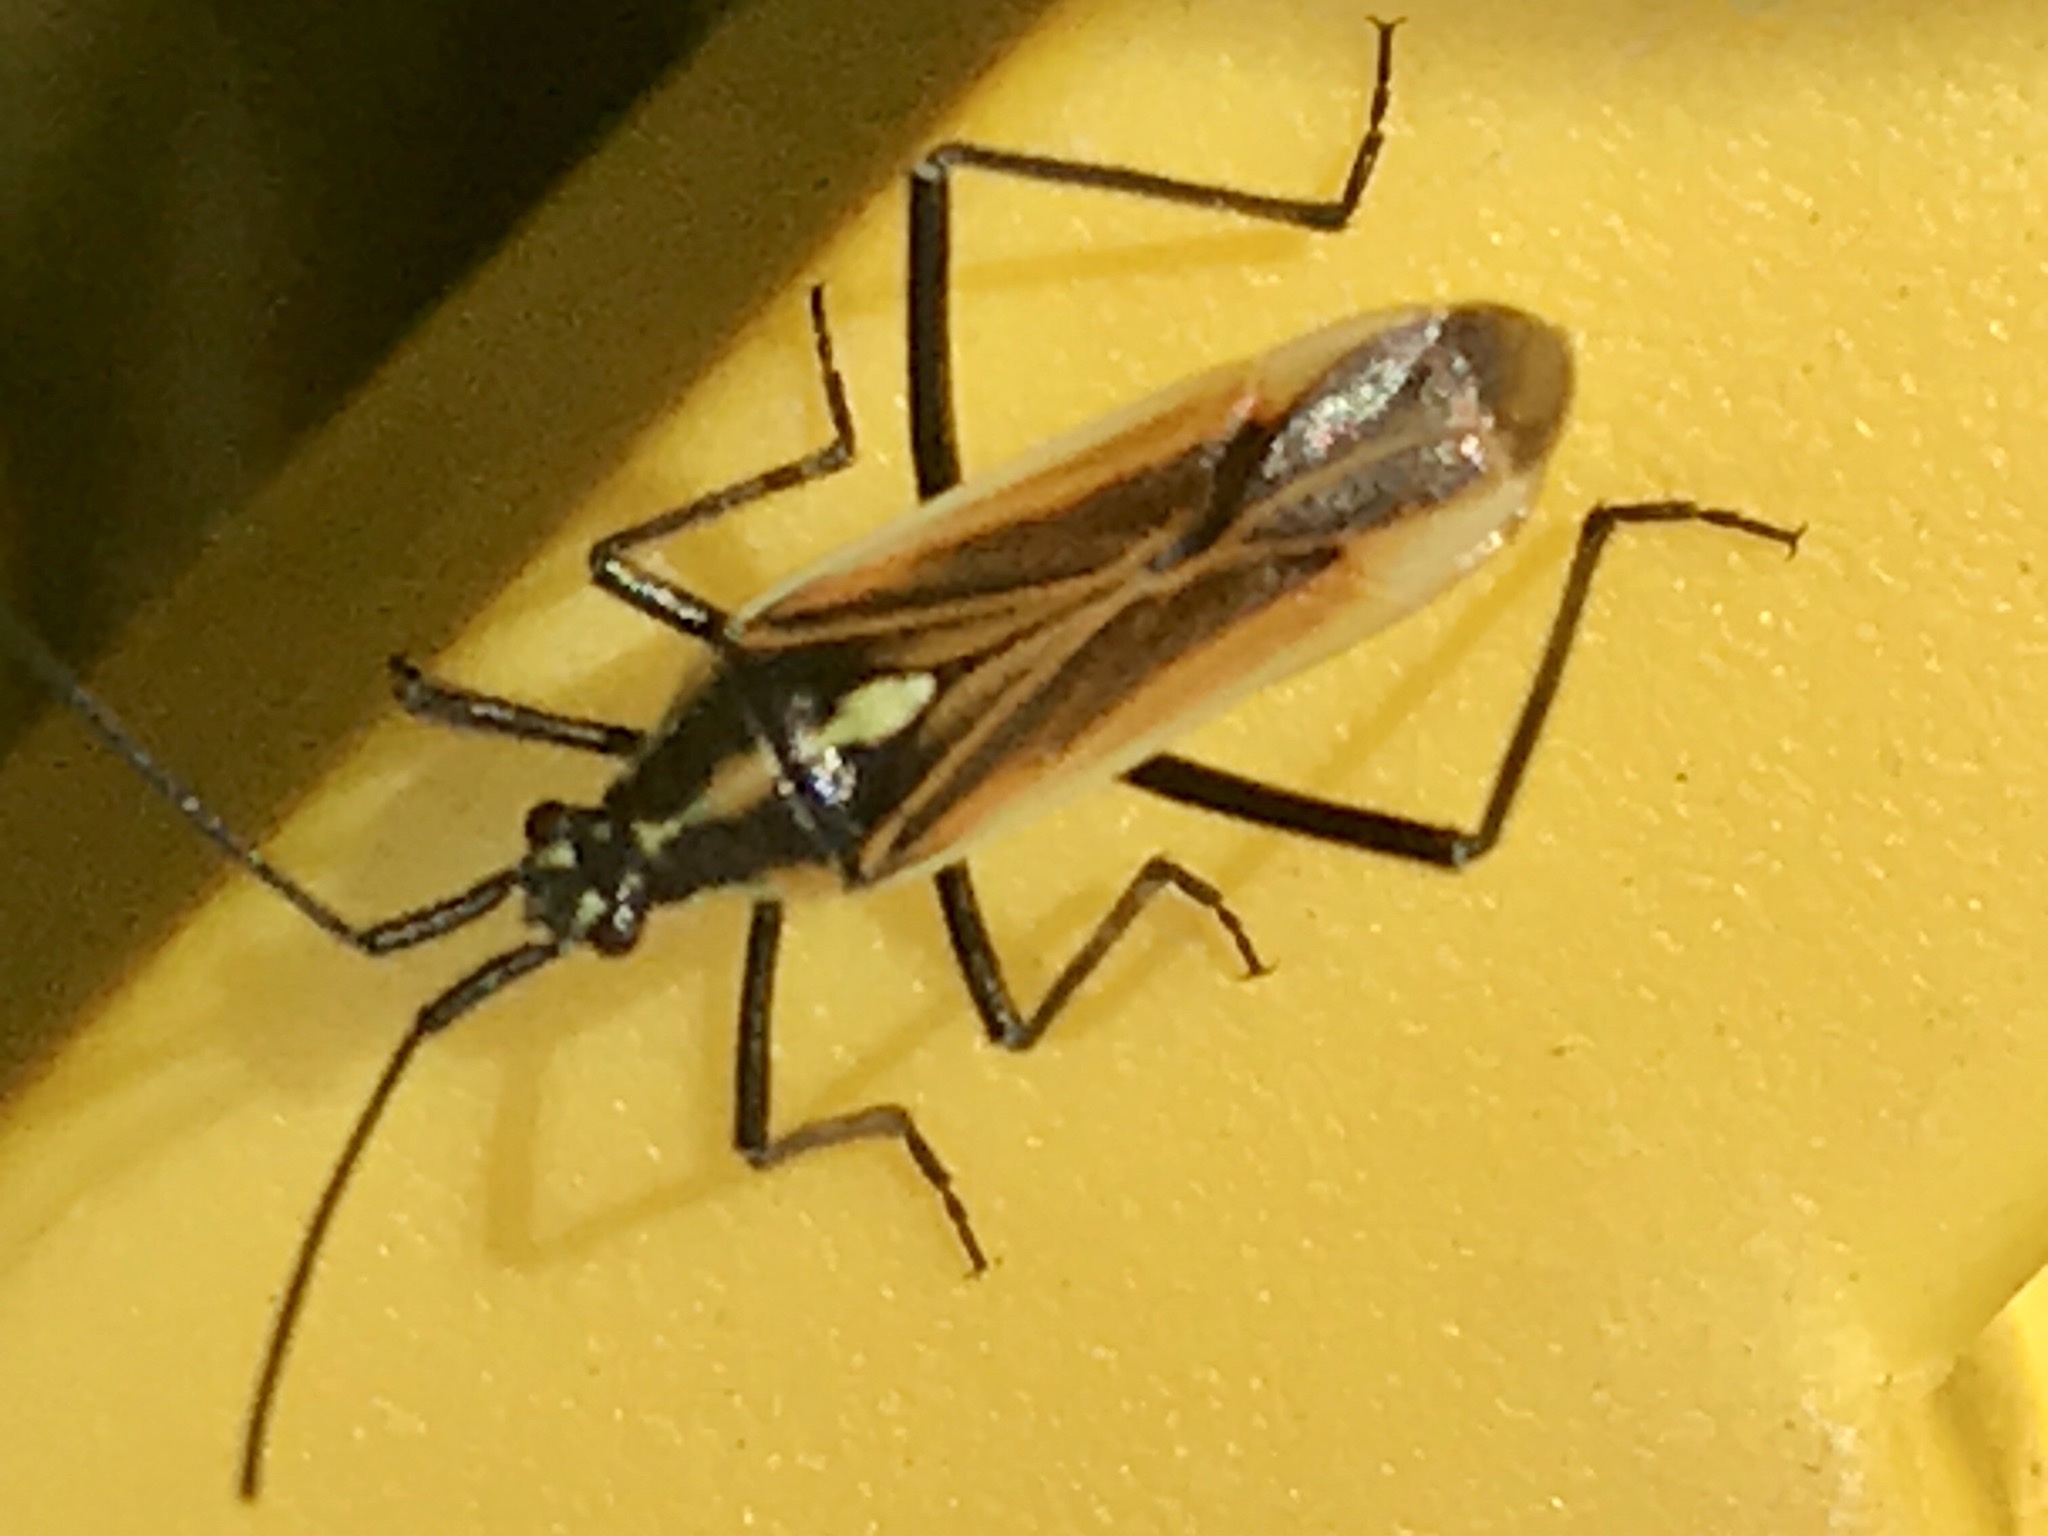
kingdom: Animalia
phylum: Arthropoda
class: Insecta
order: Hemiptera
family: Miridae
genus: Leptopterna
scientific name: Leptopterna dolabrata
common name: Meadow plant bug
